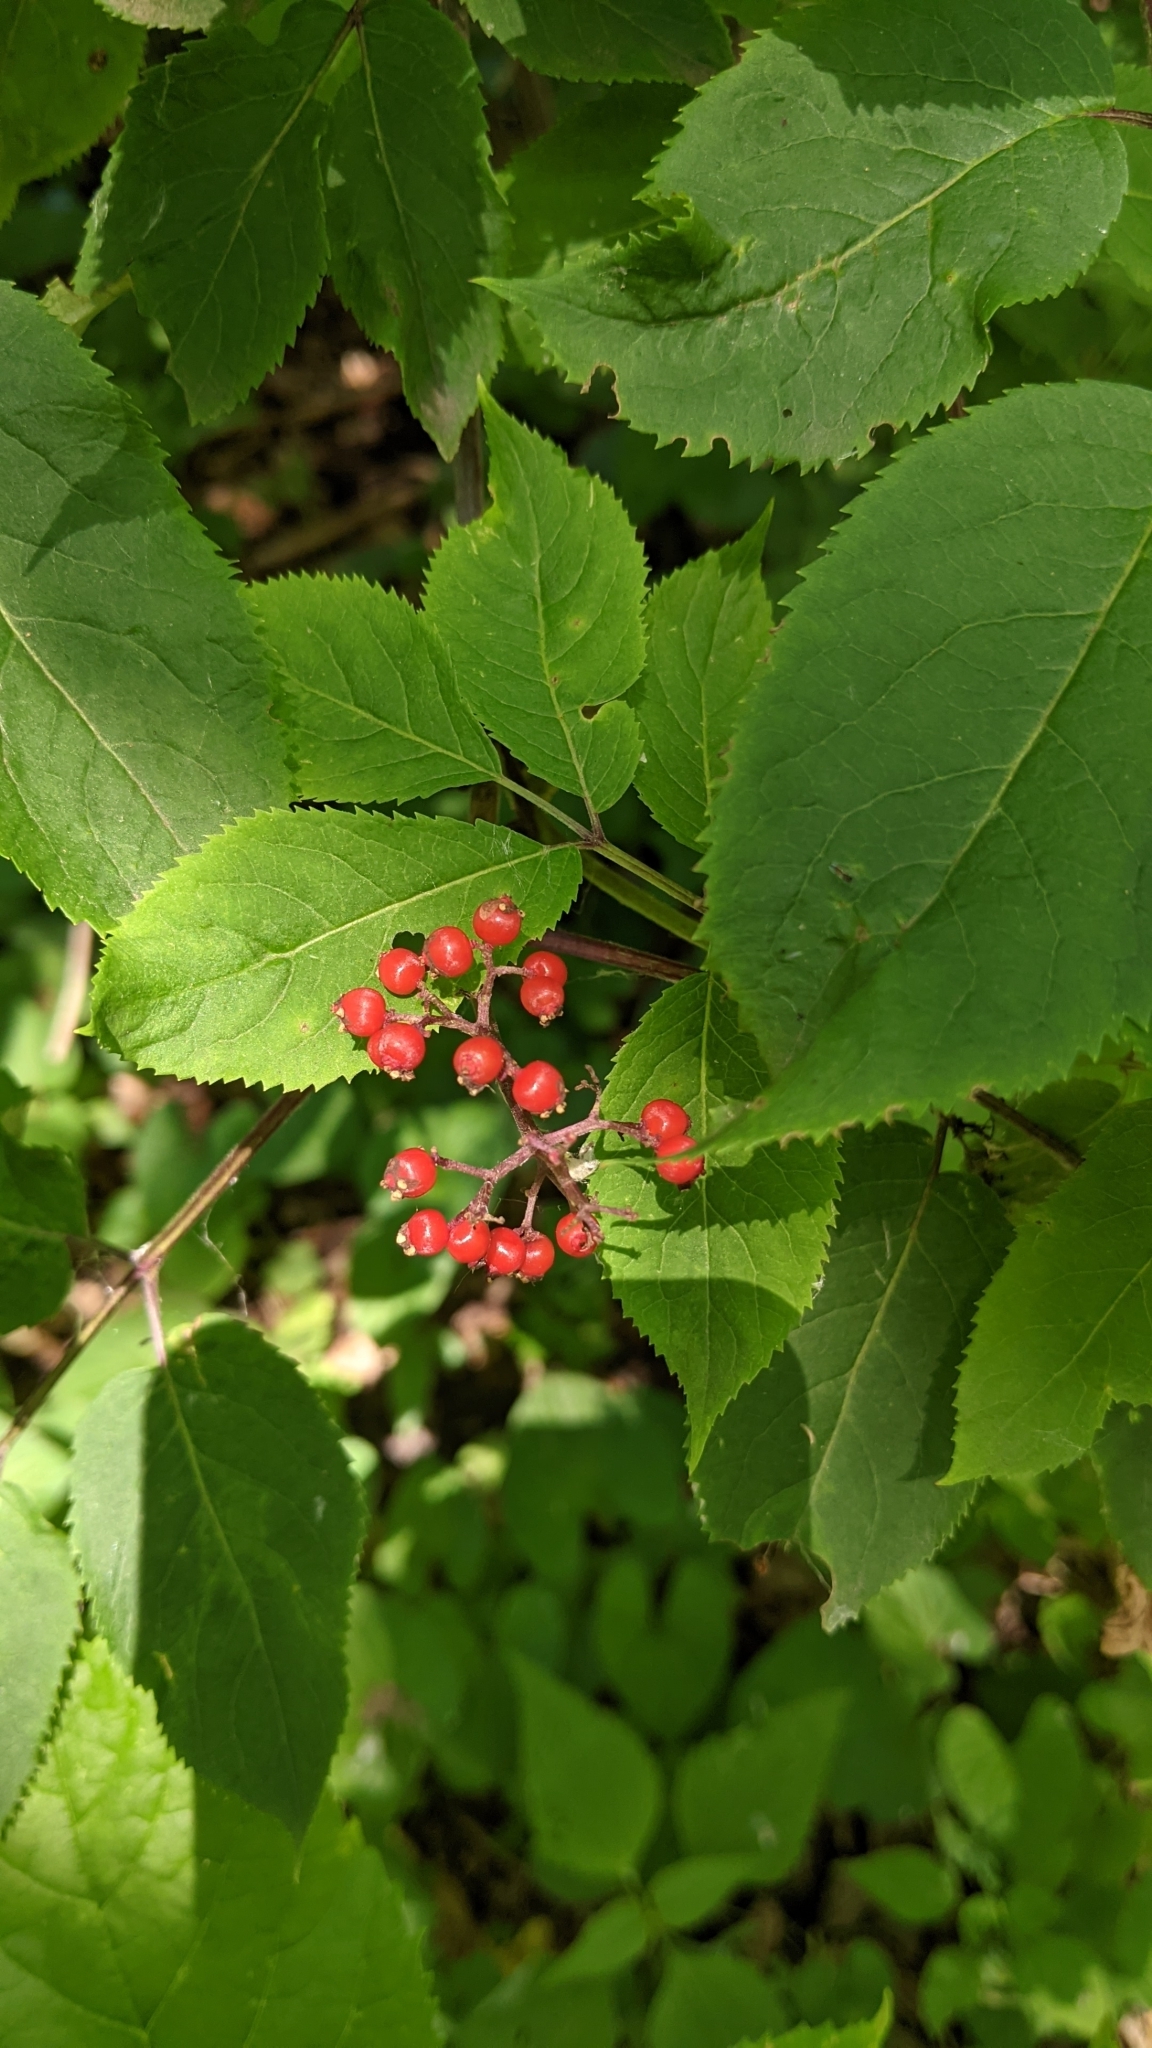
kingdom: Plantae
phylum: Tracheophyta
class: Magnoliopsida
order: Dipsacales
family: Viburnaceae
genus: Sambucus
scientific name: Sambucus racemosa
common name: Red-berried elder
